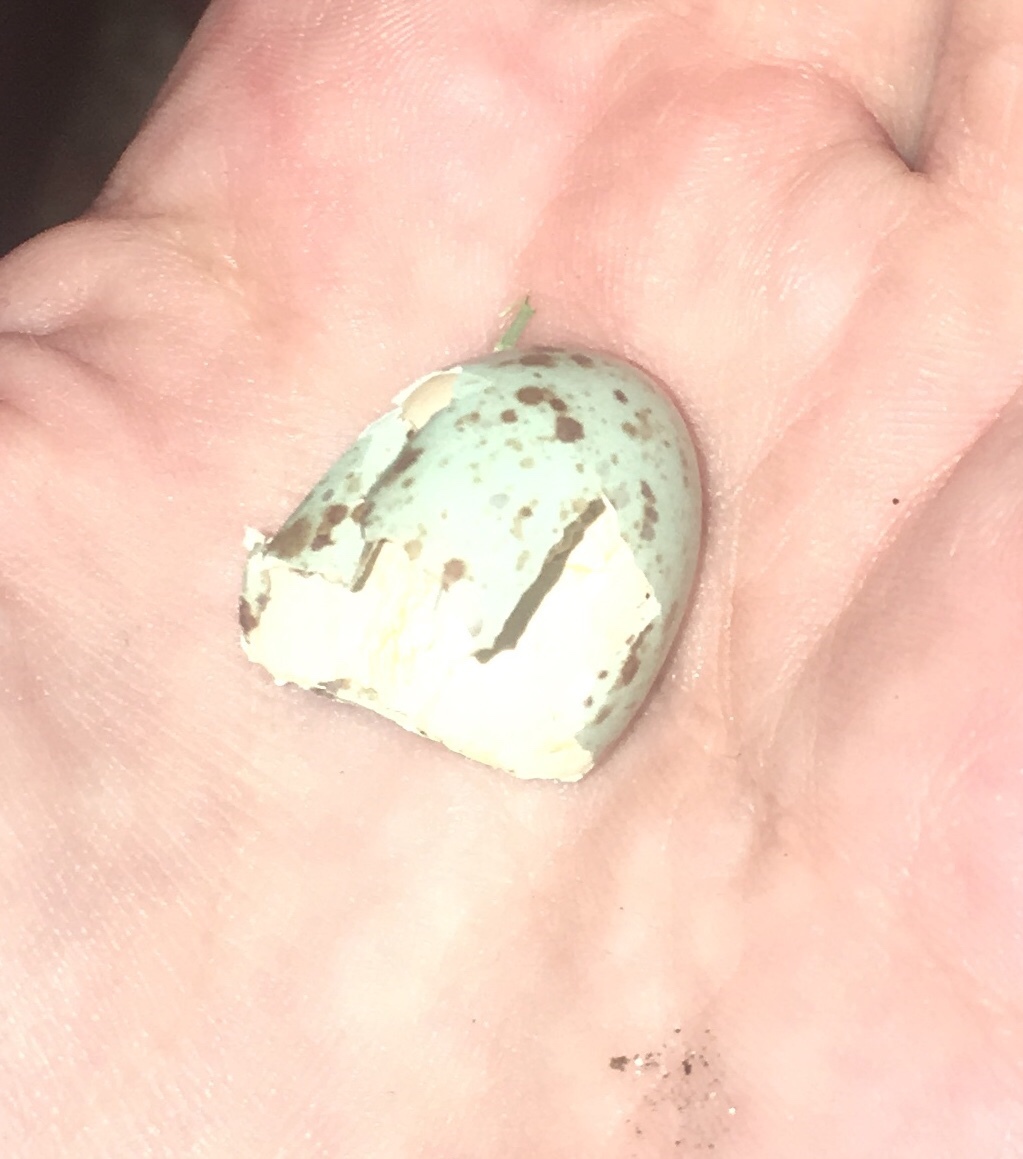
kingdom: Animalia
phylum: Chordata
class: Aves
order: Passeriformes
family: Mimidae
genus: Mimus
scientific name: Mimus polyglottos
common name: Northern mockingbird
